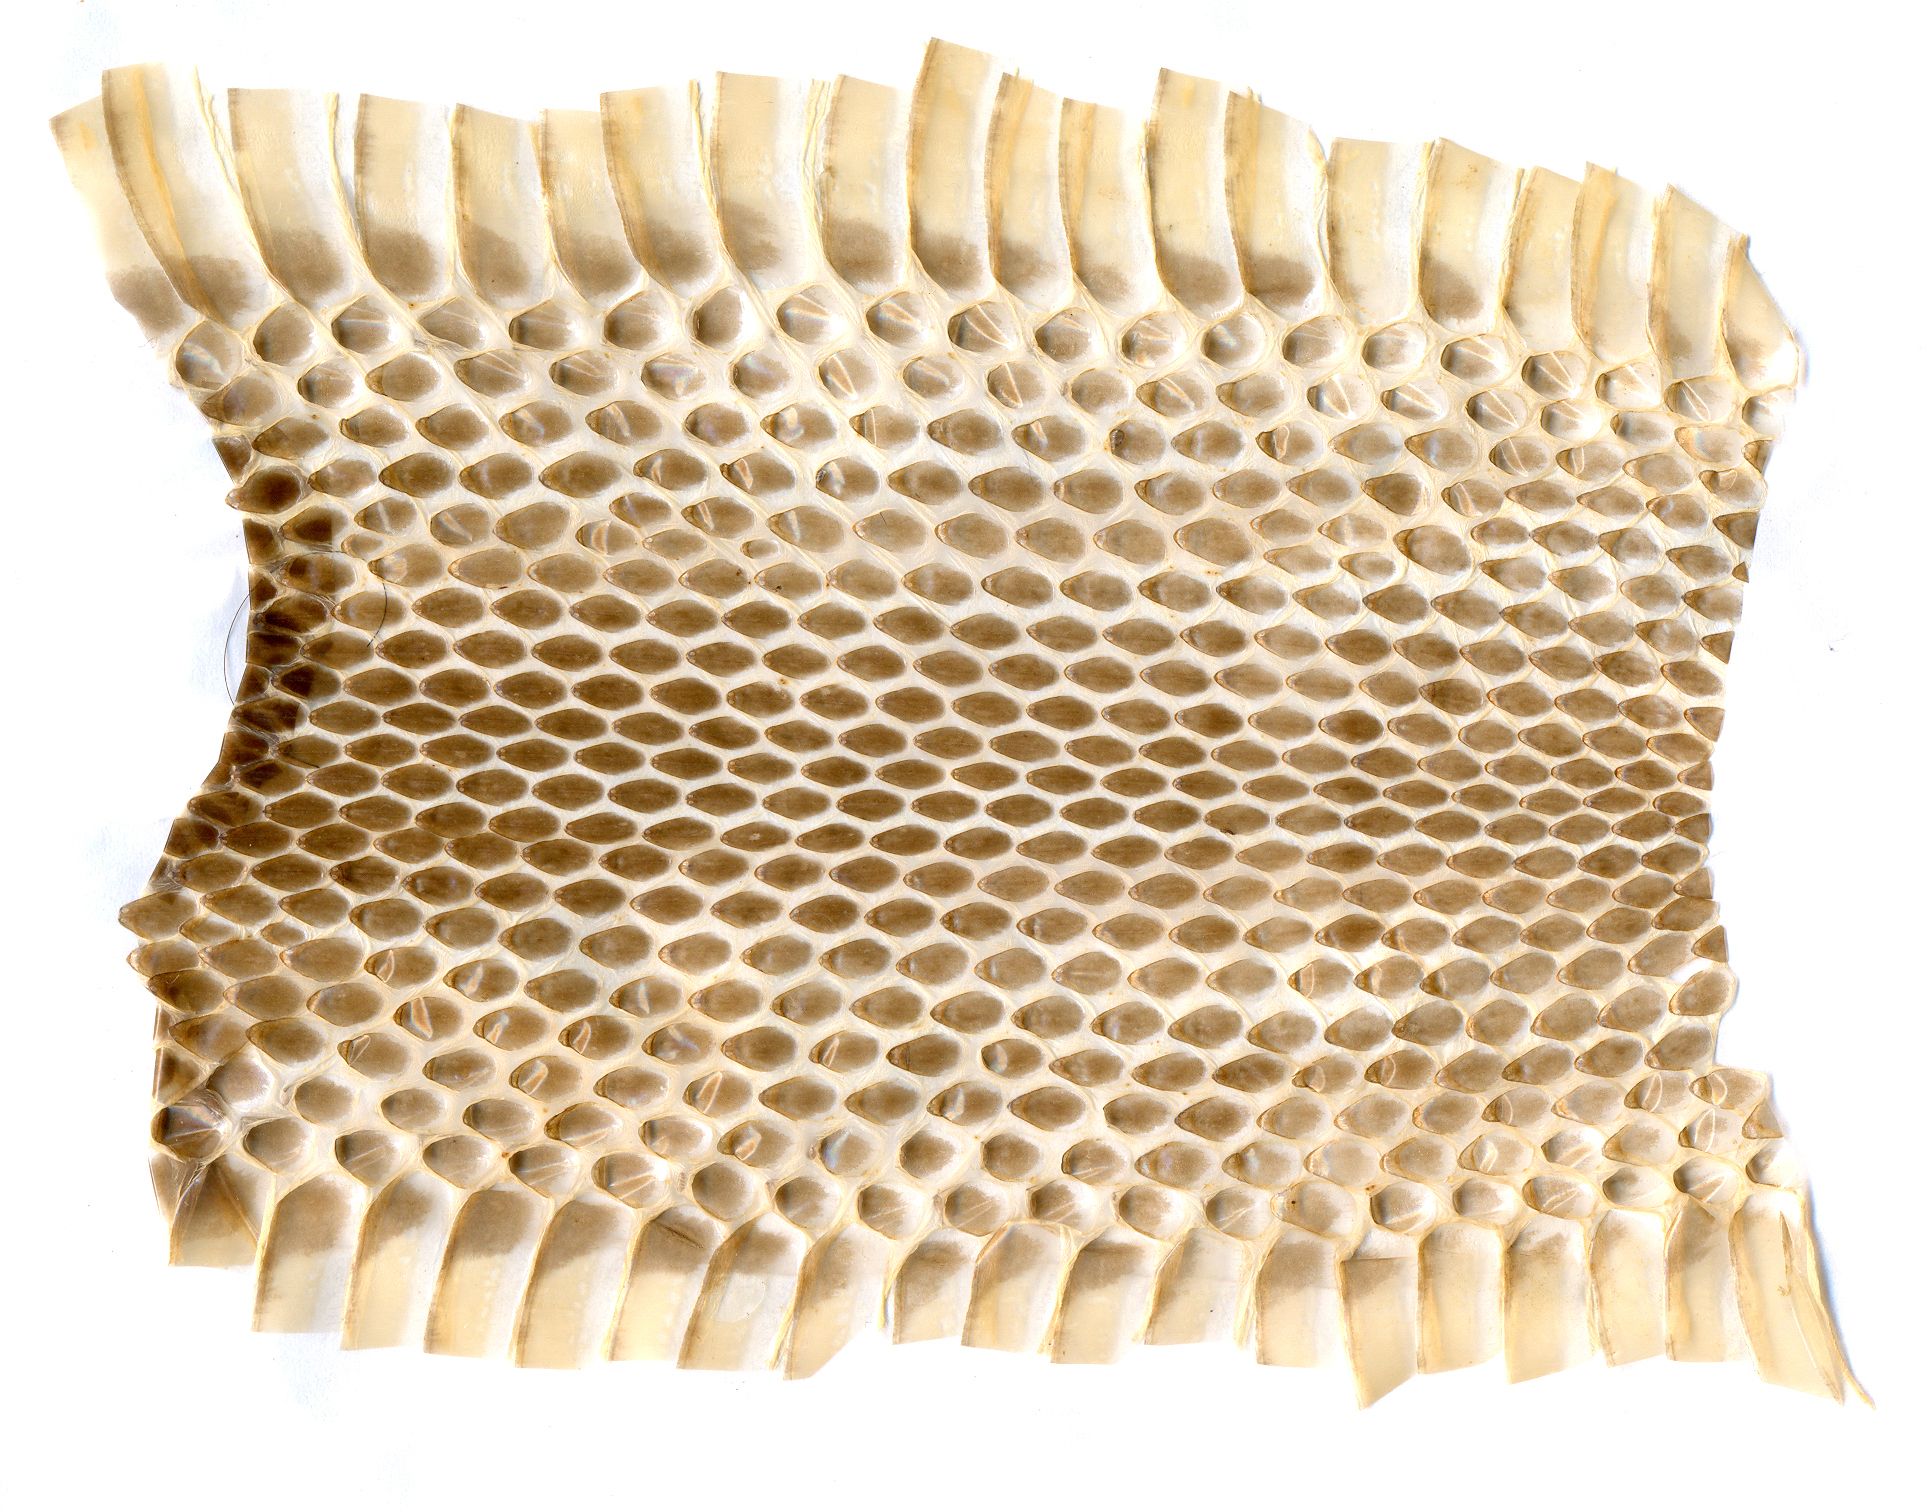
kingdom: Animalia
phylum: Chordata
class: Squamata
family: Colubridae
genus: Elaphe
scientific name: Elaphe schrenckii
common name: Amur rat snake
